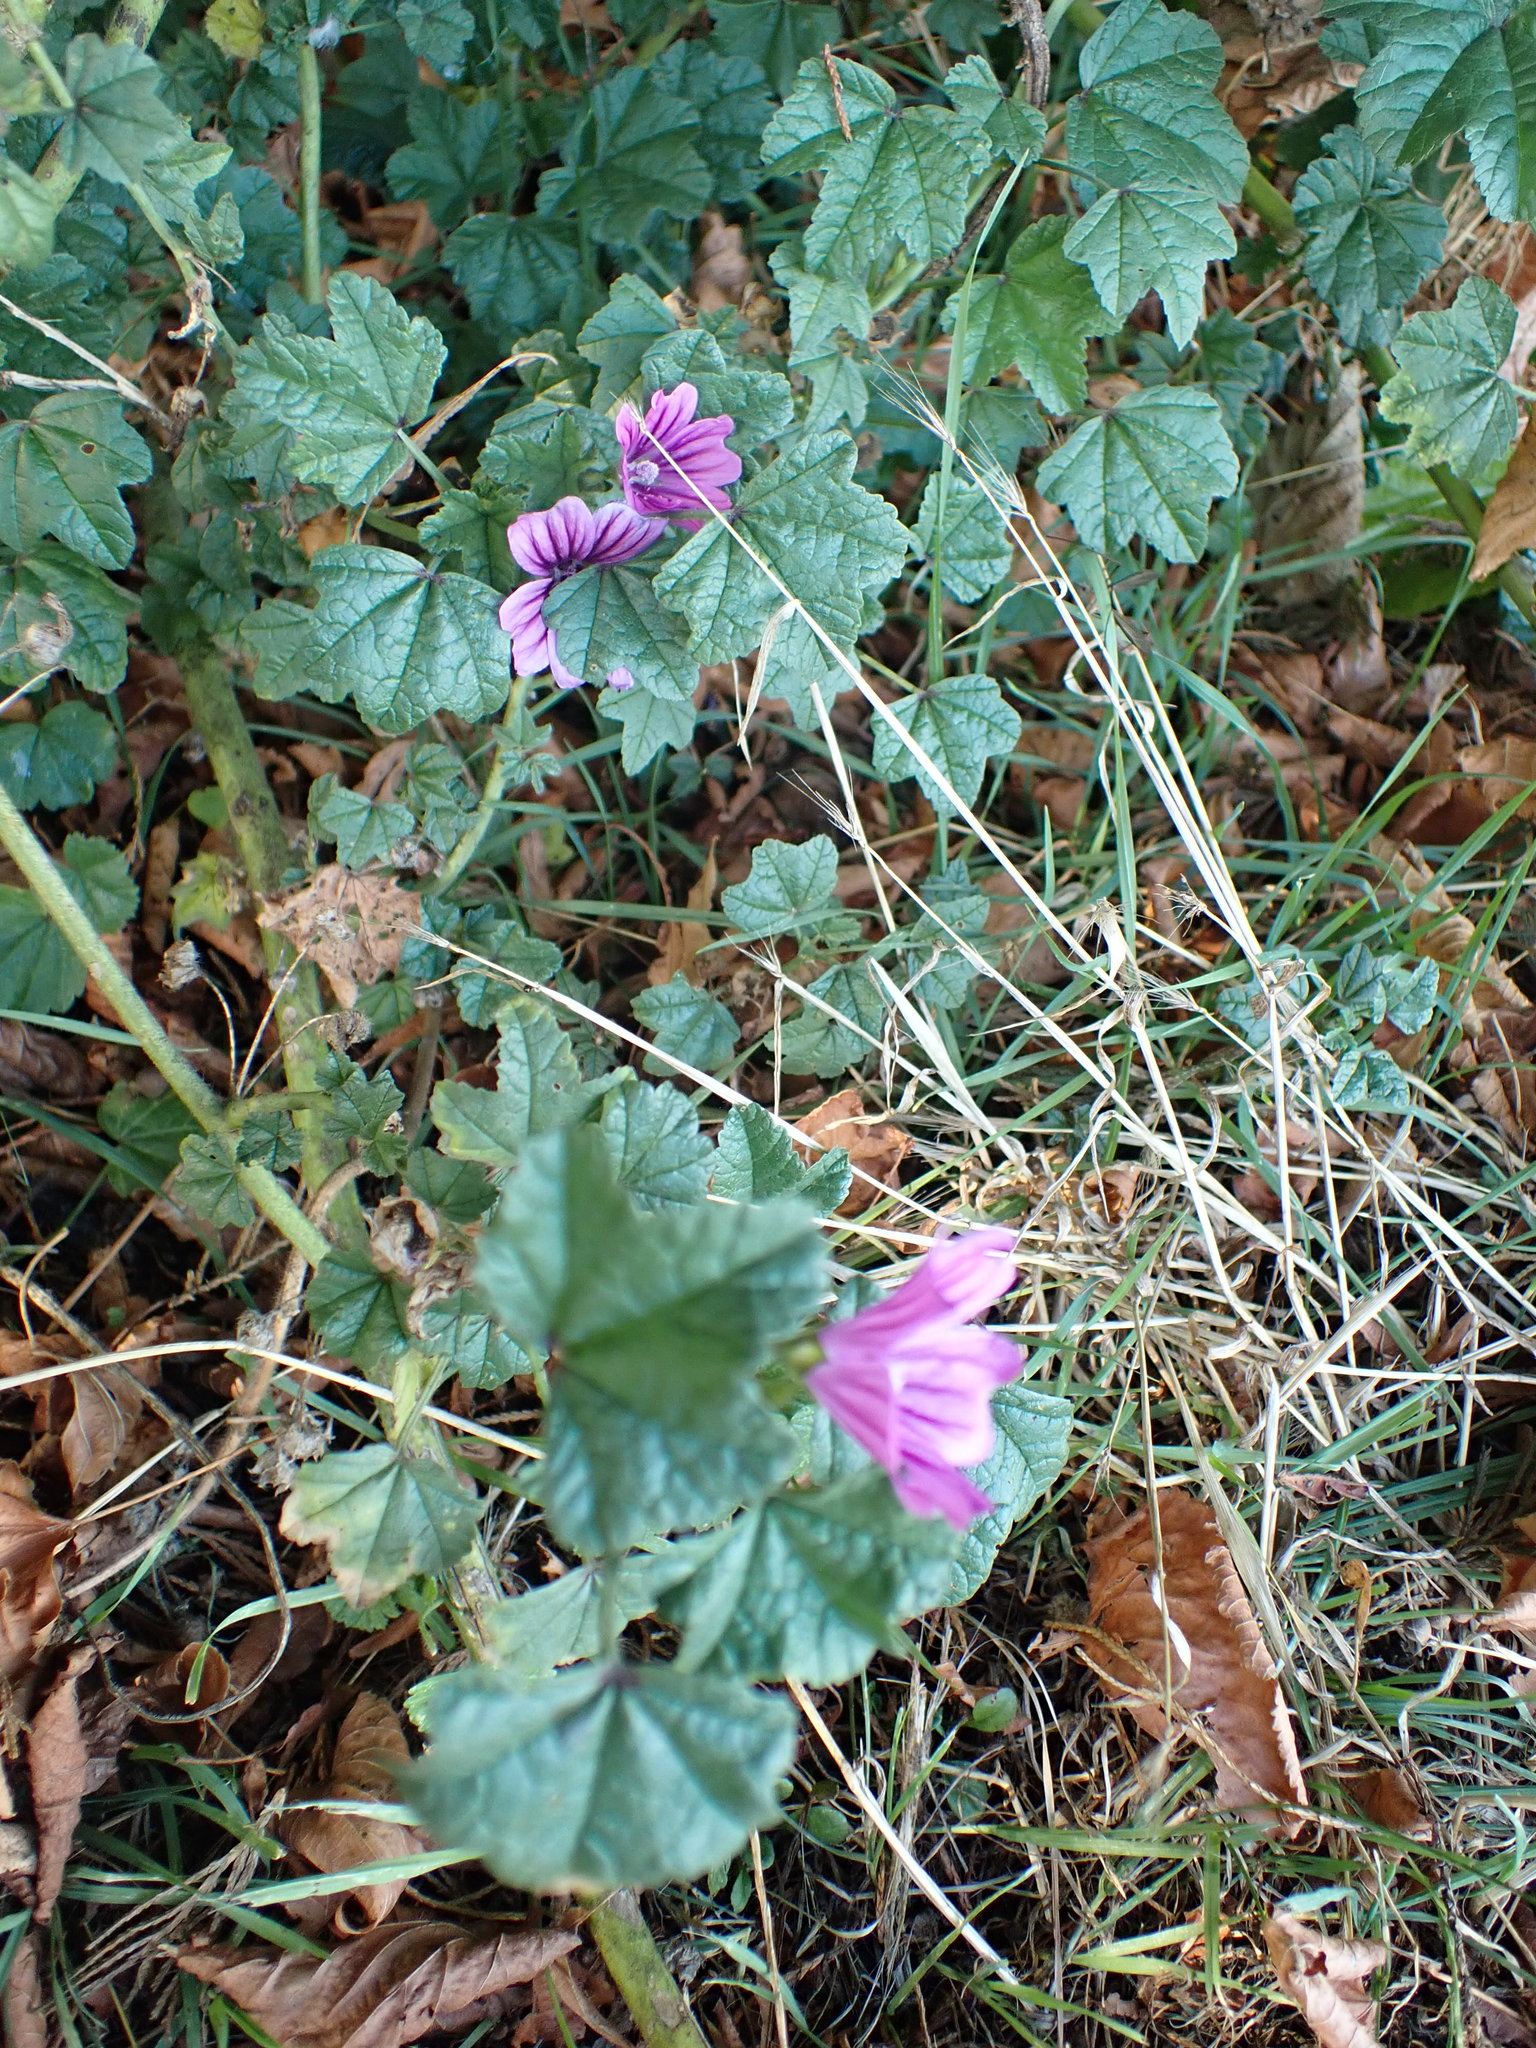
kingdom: Plantae
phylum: Tracheophyta
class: Magnoliopsida
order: Malvales
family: Malvaceae
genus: Malva
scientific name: Malva sylvestris
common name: Common mallow
